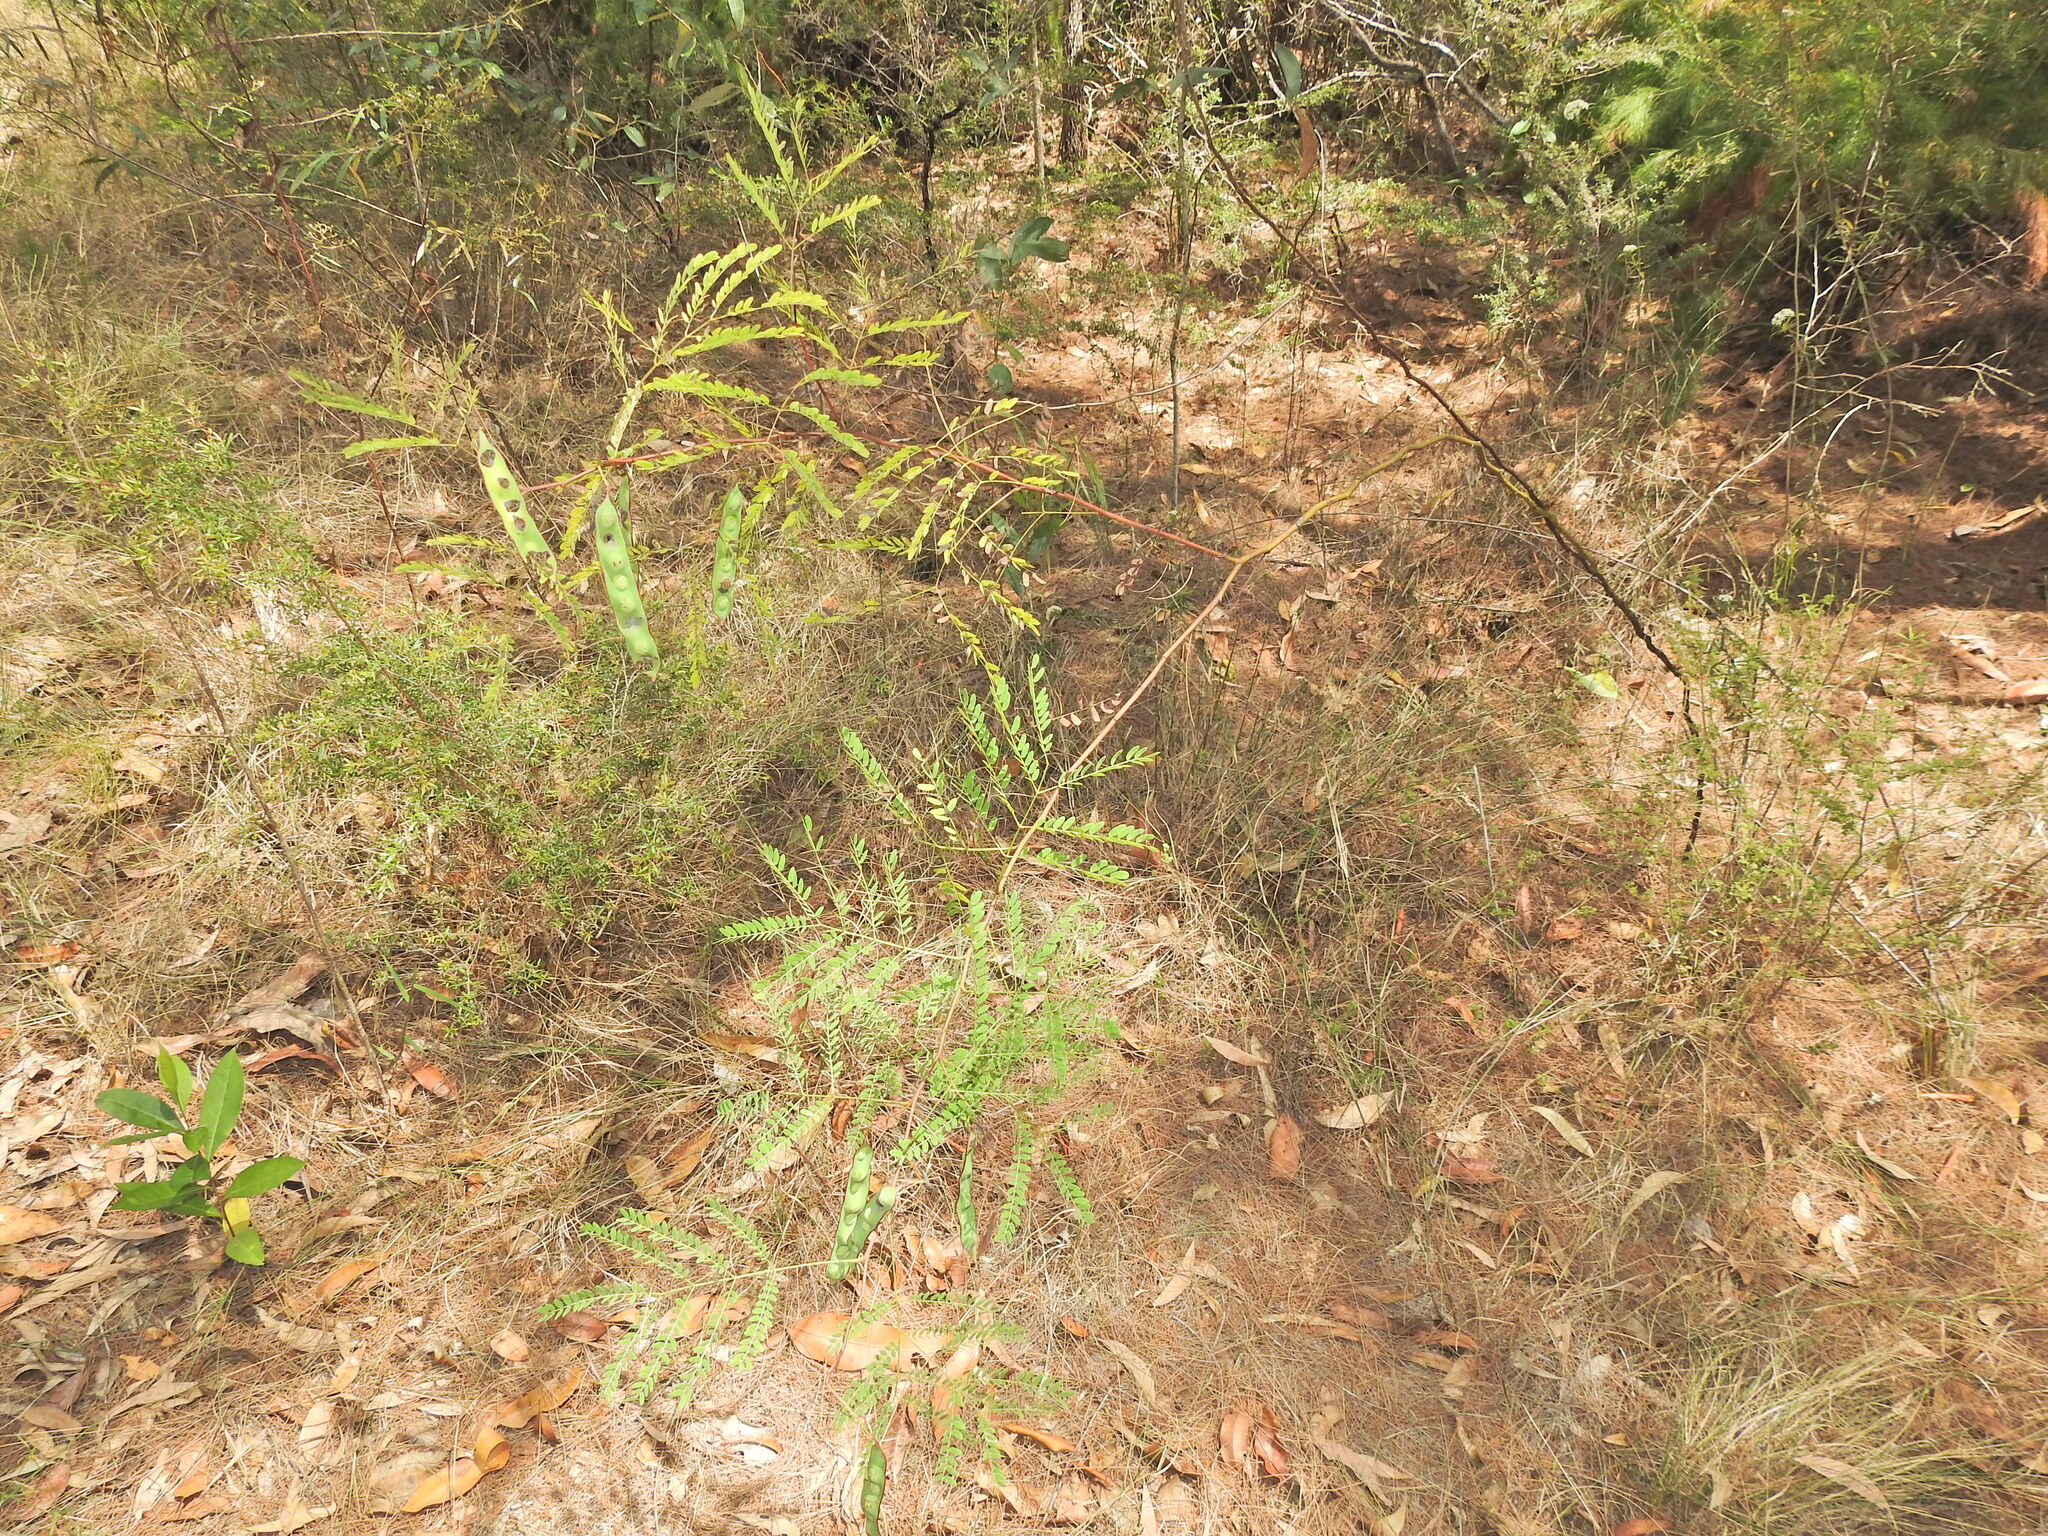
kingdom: Plantae
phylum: Tracheophyta
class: Magnoliopsida
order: Fabales
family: Fabaceae
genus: Acacia
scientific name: Acacia attenuata
